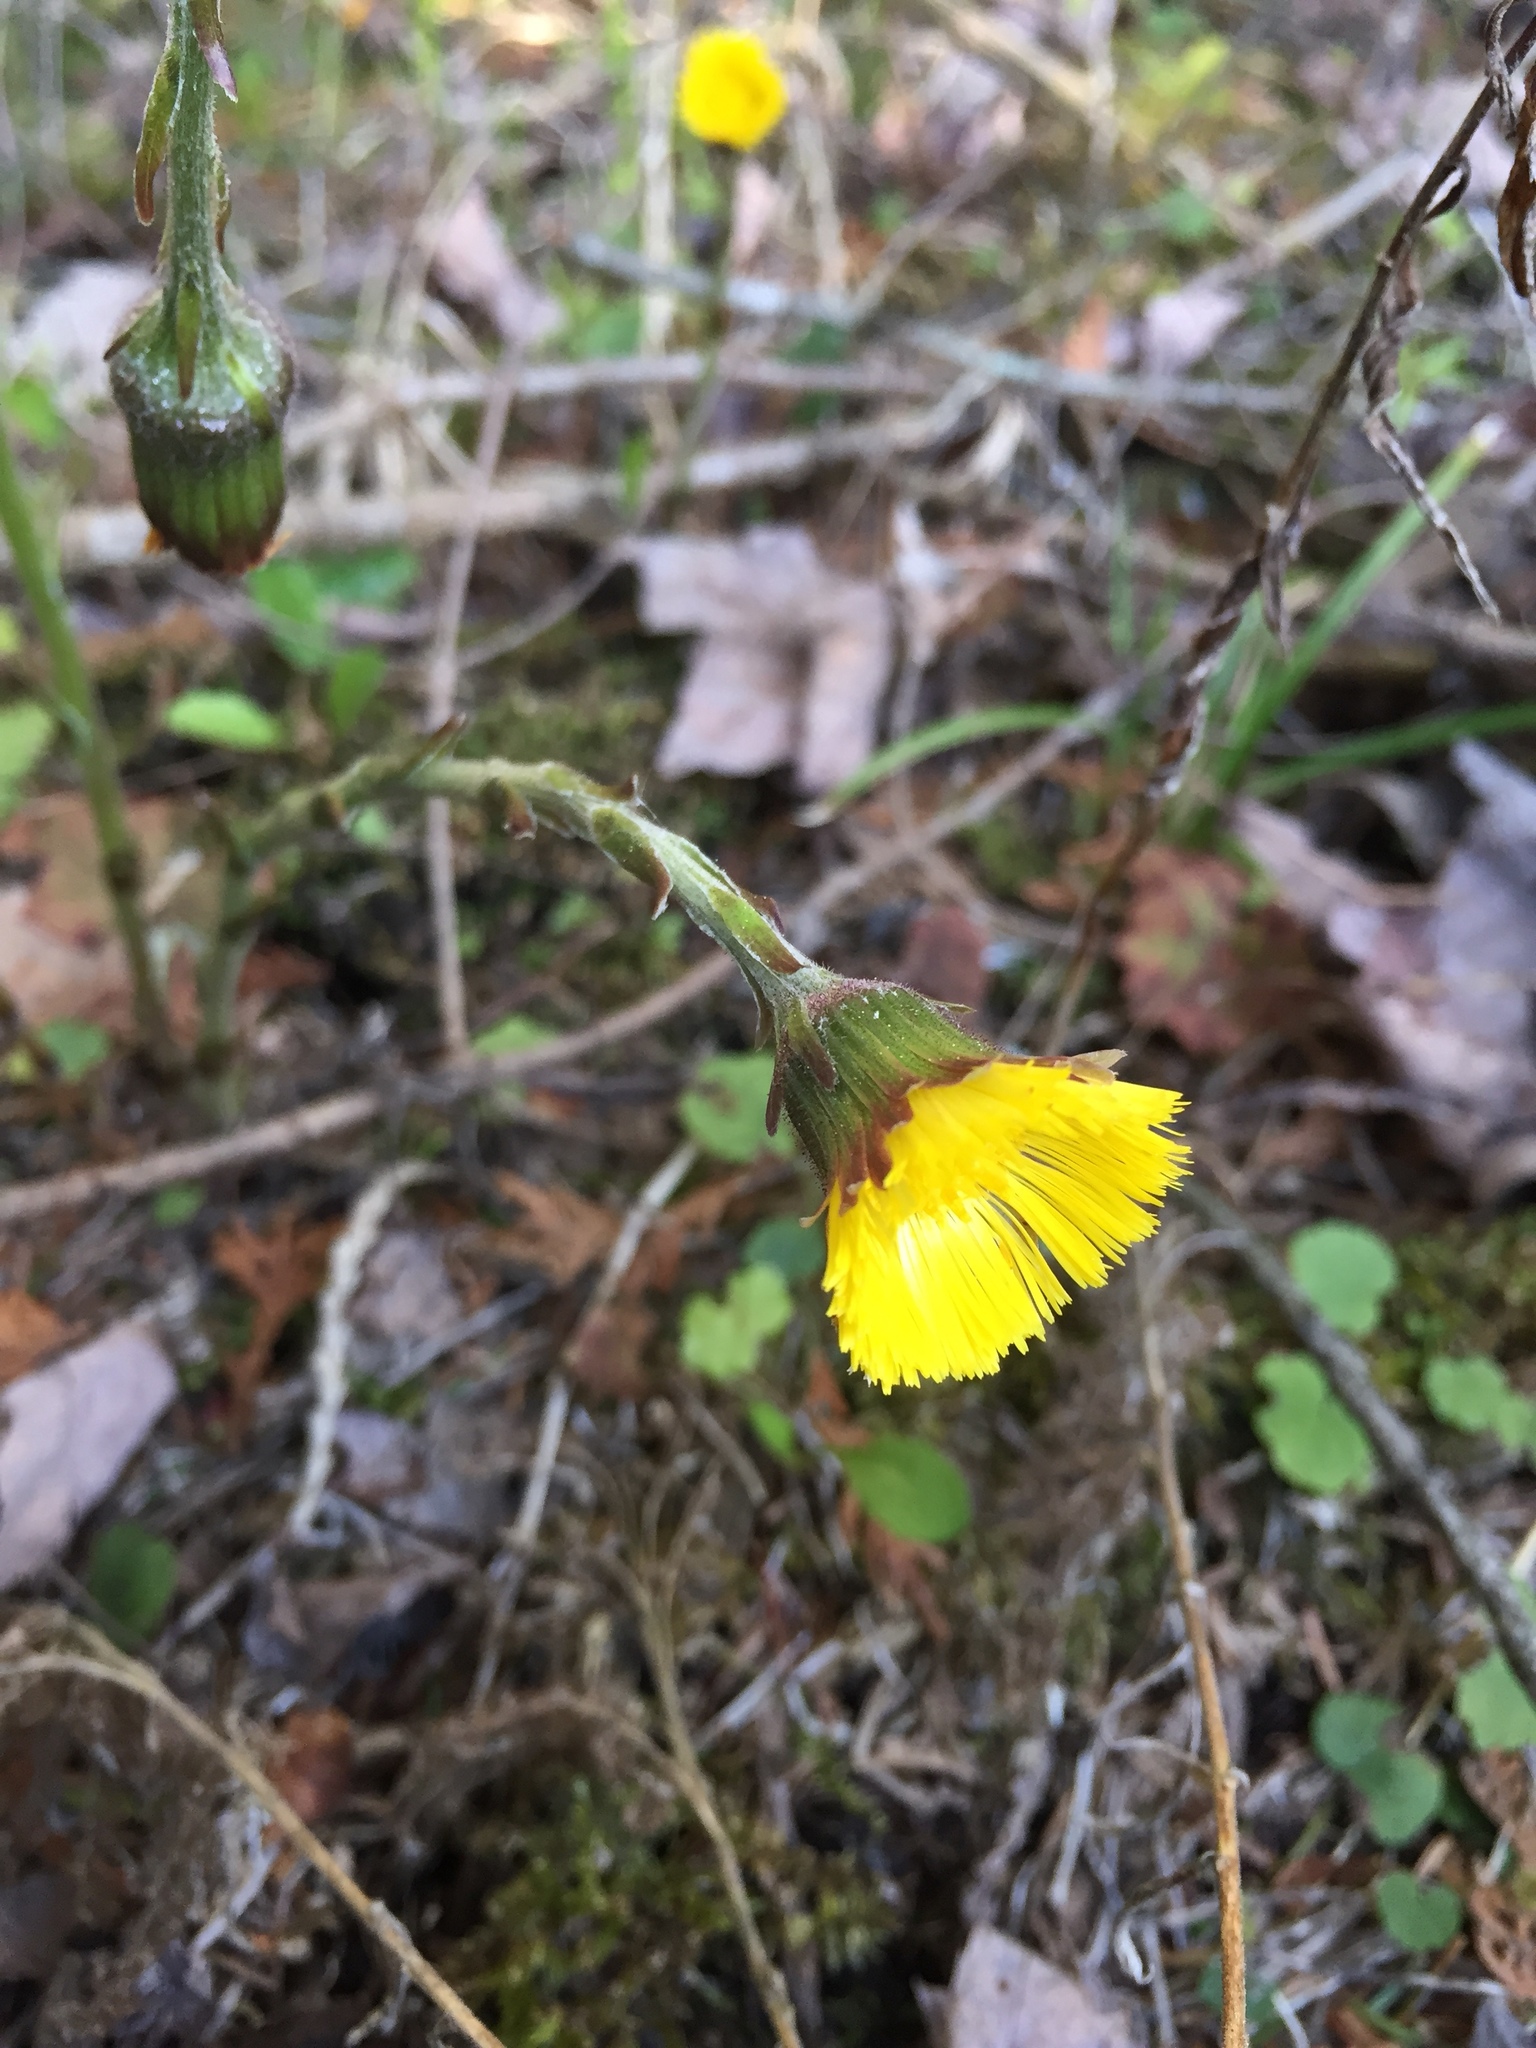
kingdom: Plantae
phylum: Tracheophyta
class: Magnoliopsida
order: Asterales
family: Asteraceae
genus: Tussilago
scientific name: Tussilago farfara
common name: Coltsfoot
